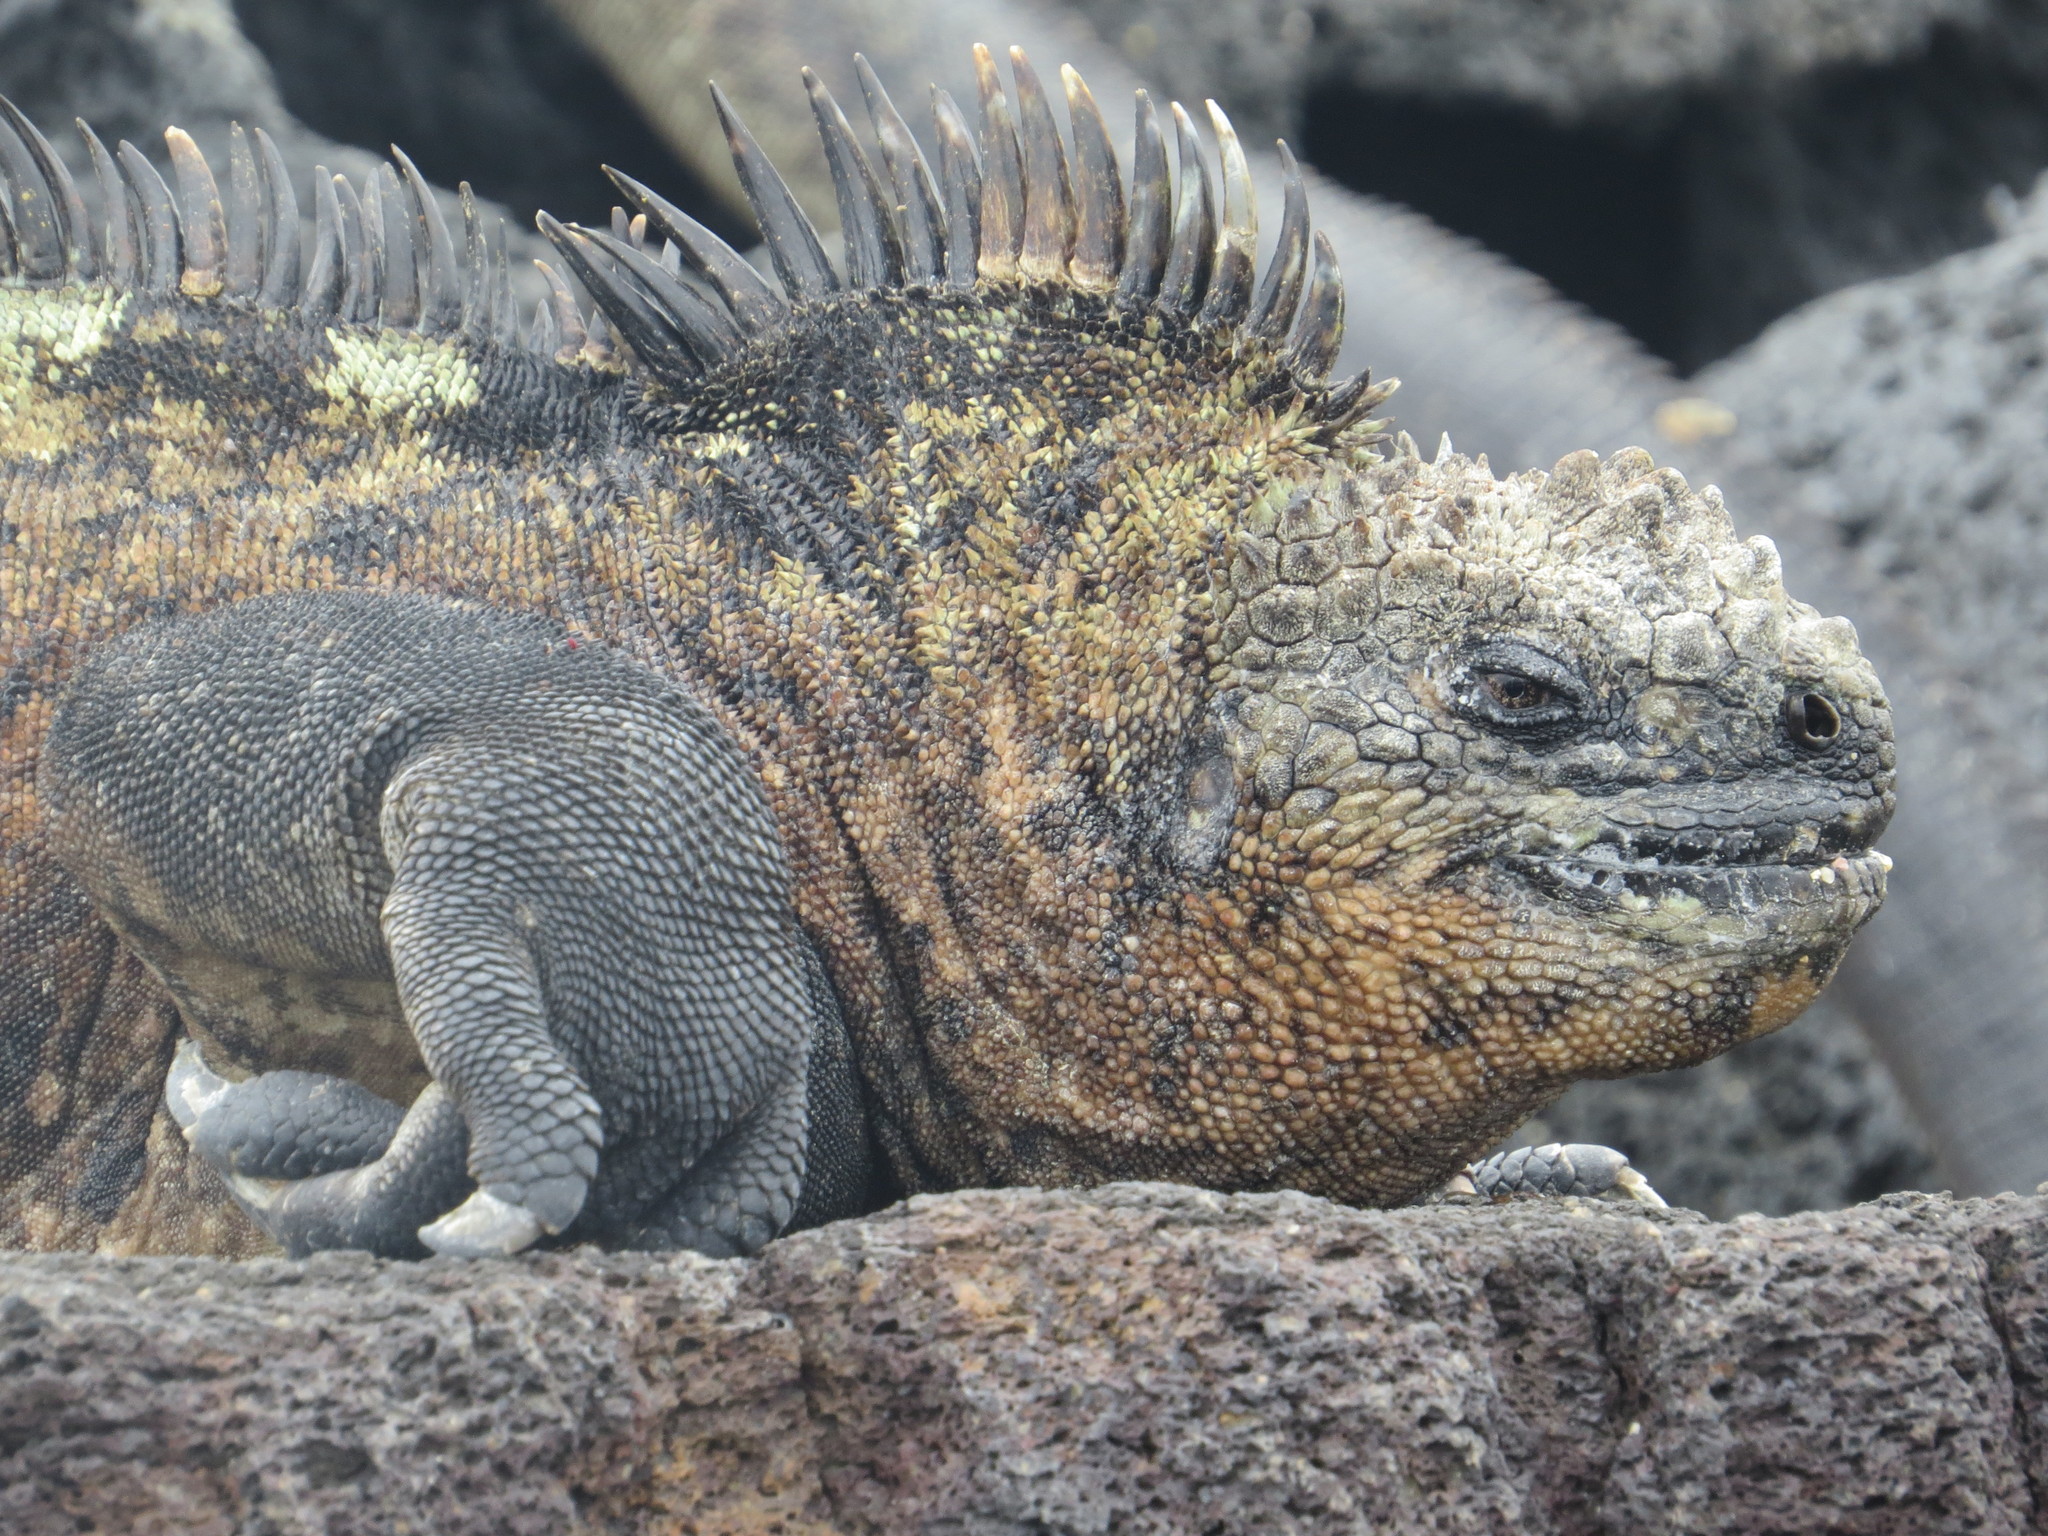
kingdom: Animalia
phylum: Chordata
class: Squamata
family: Iguanidae
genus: Amblyrhynchus
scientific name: Amblyrhynchus cristatus
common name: Marine iguana
